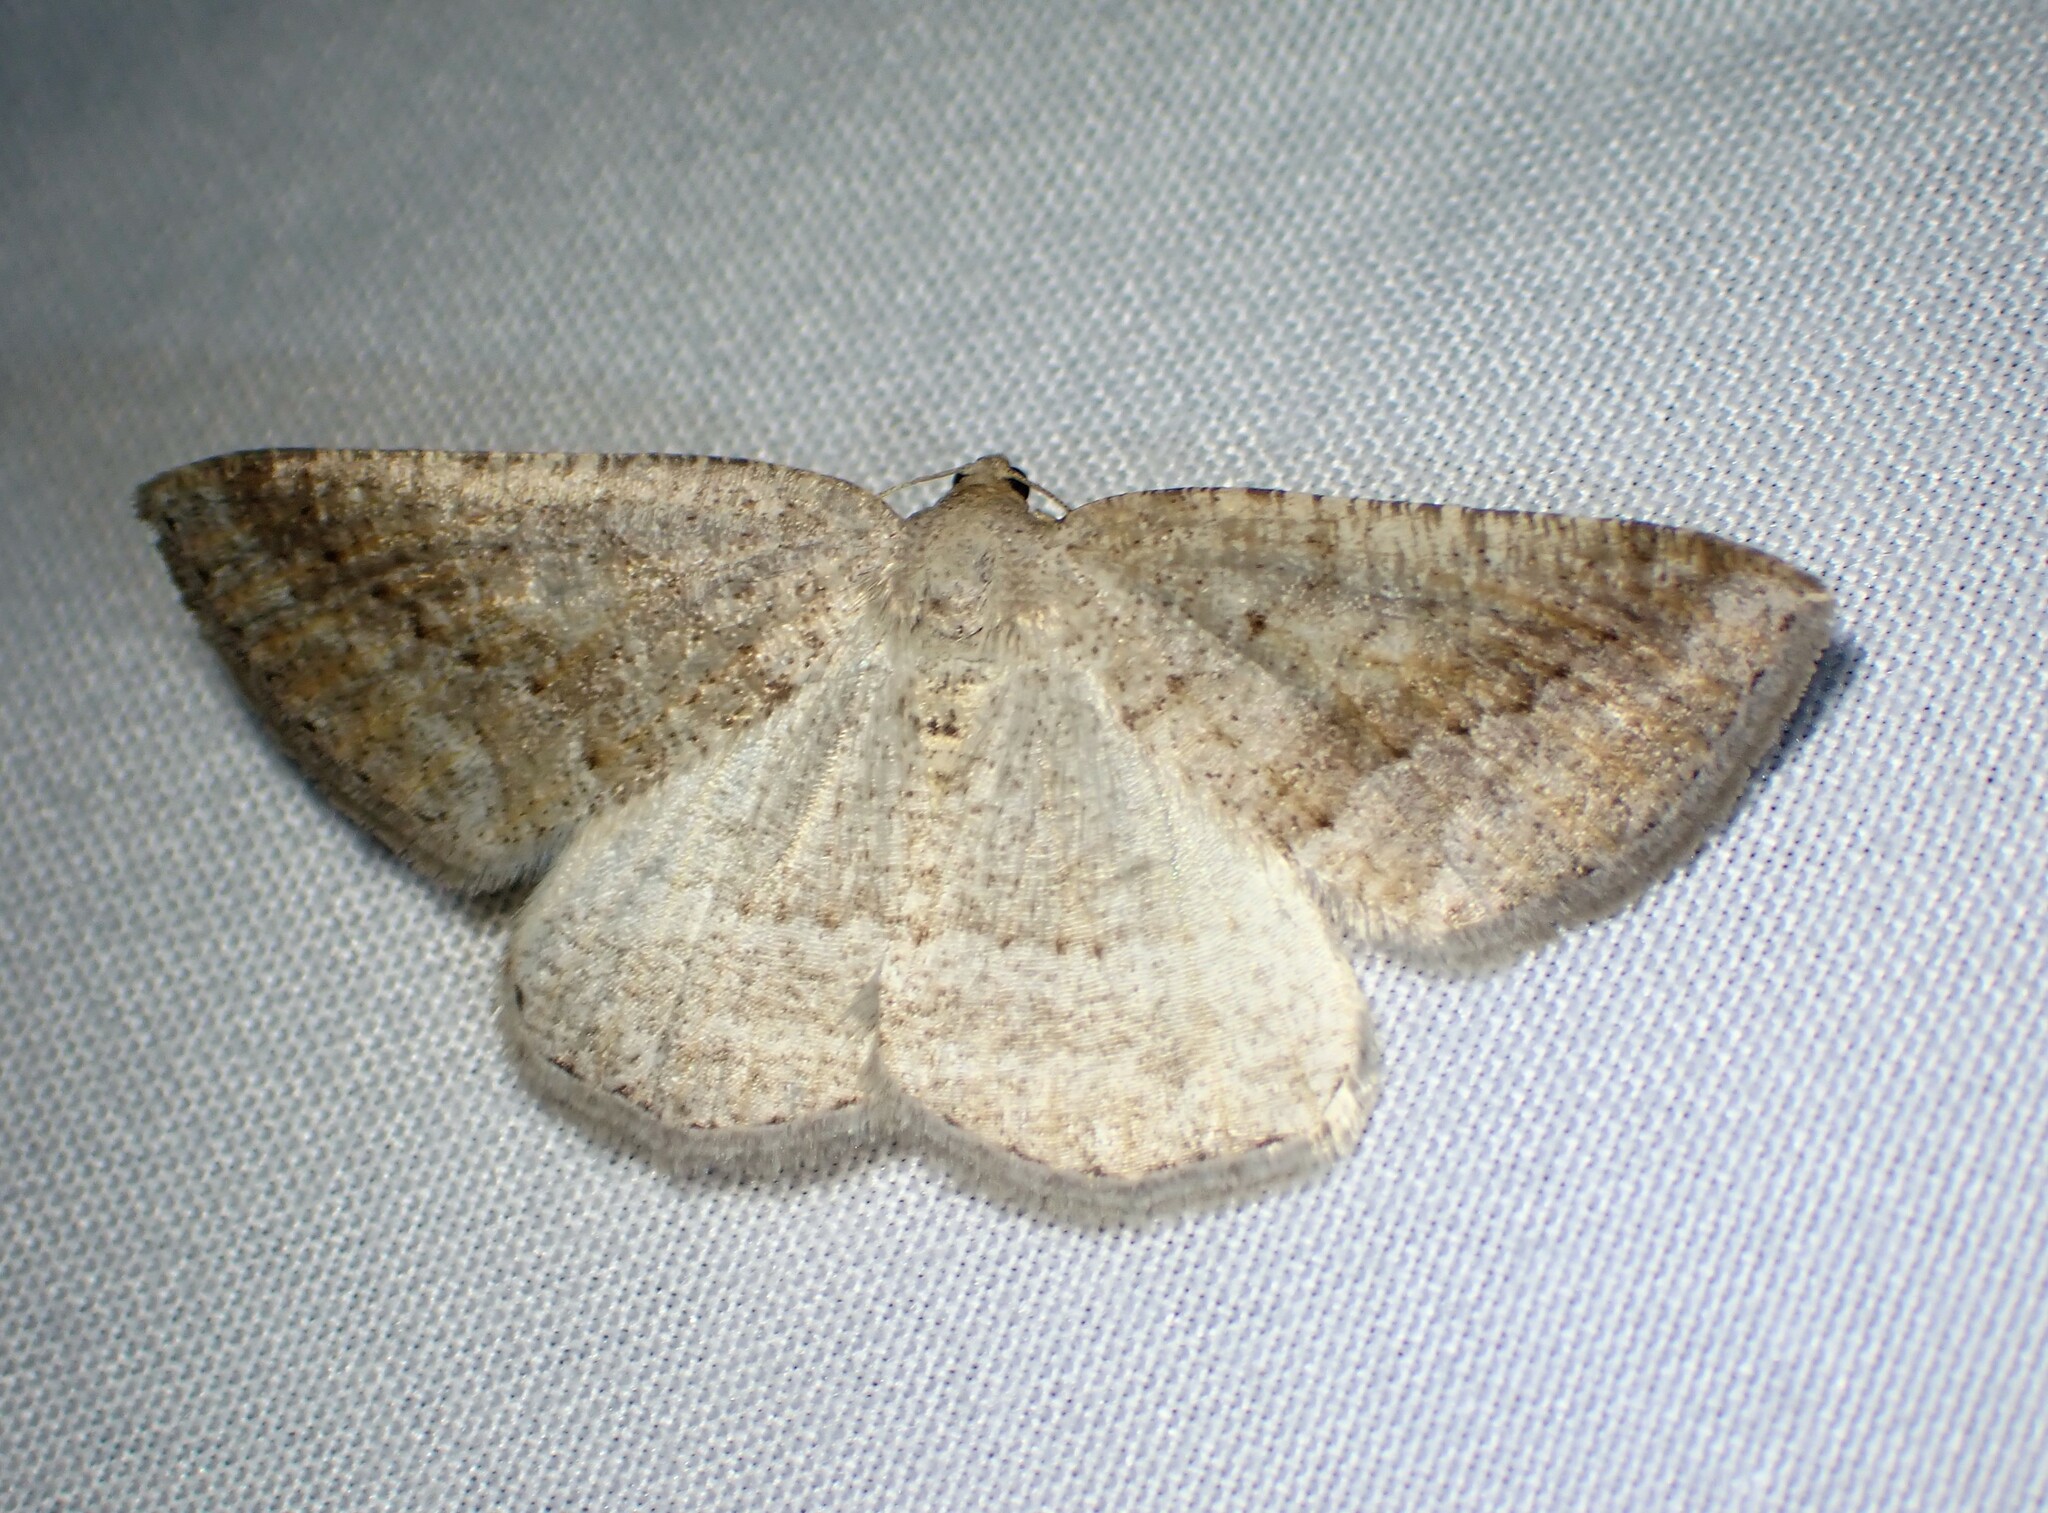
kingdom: Animalia
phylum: Arthropoda
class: Insecta
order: Lepidoptera
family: Geometridae
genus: Tacparia
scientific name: Tacparia detersata
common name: Pale alder moth
